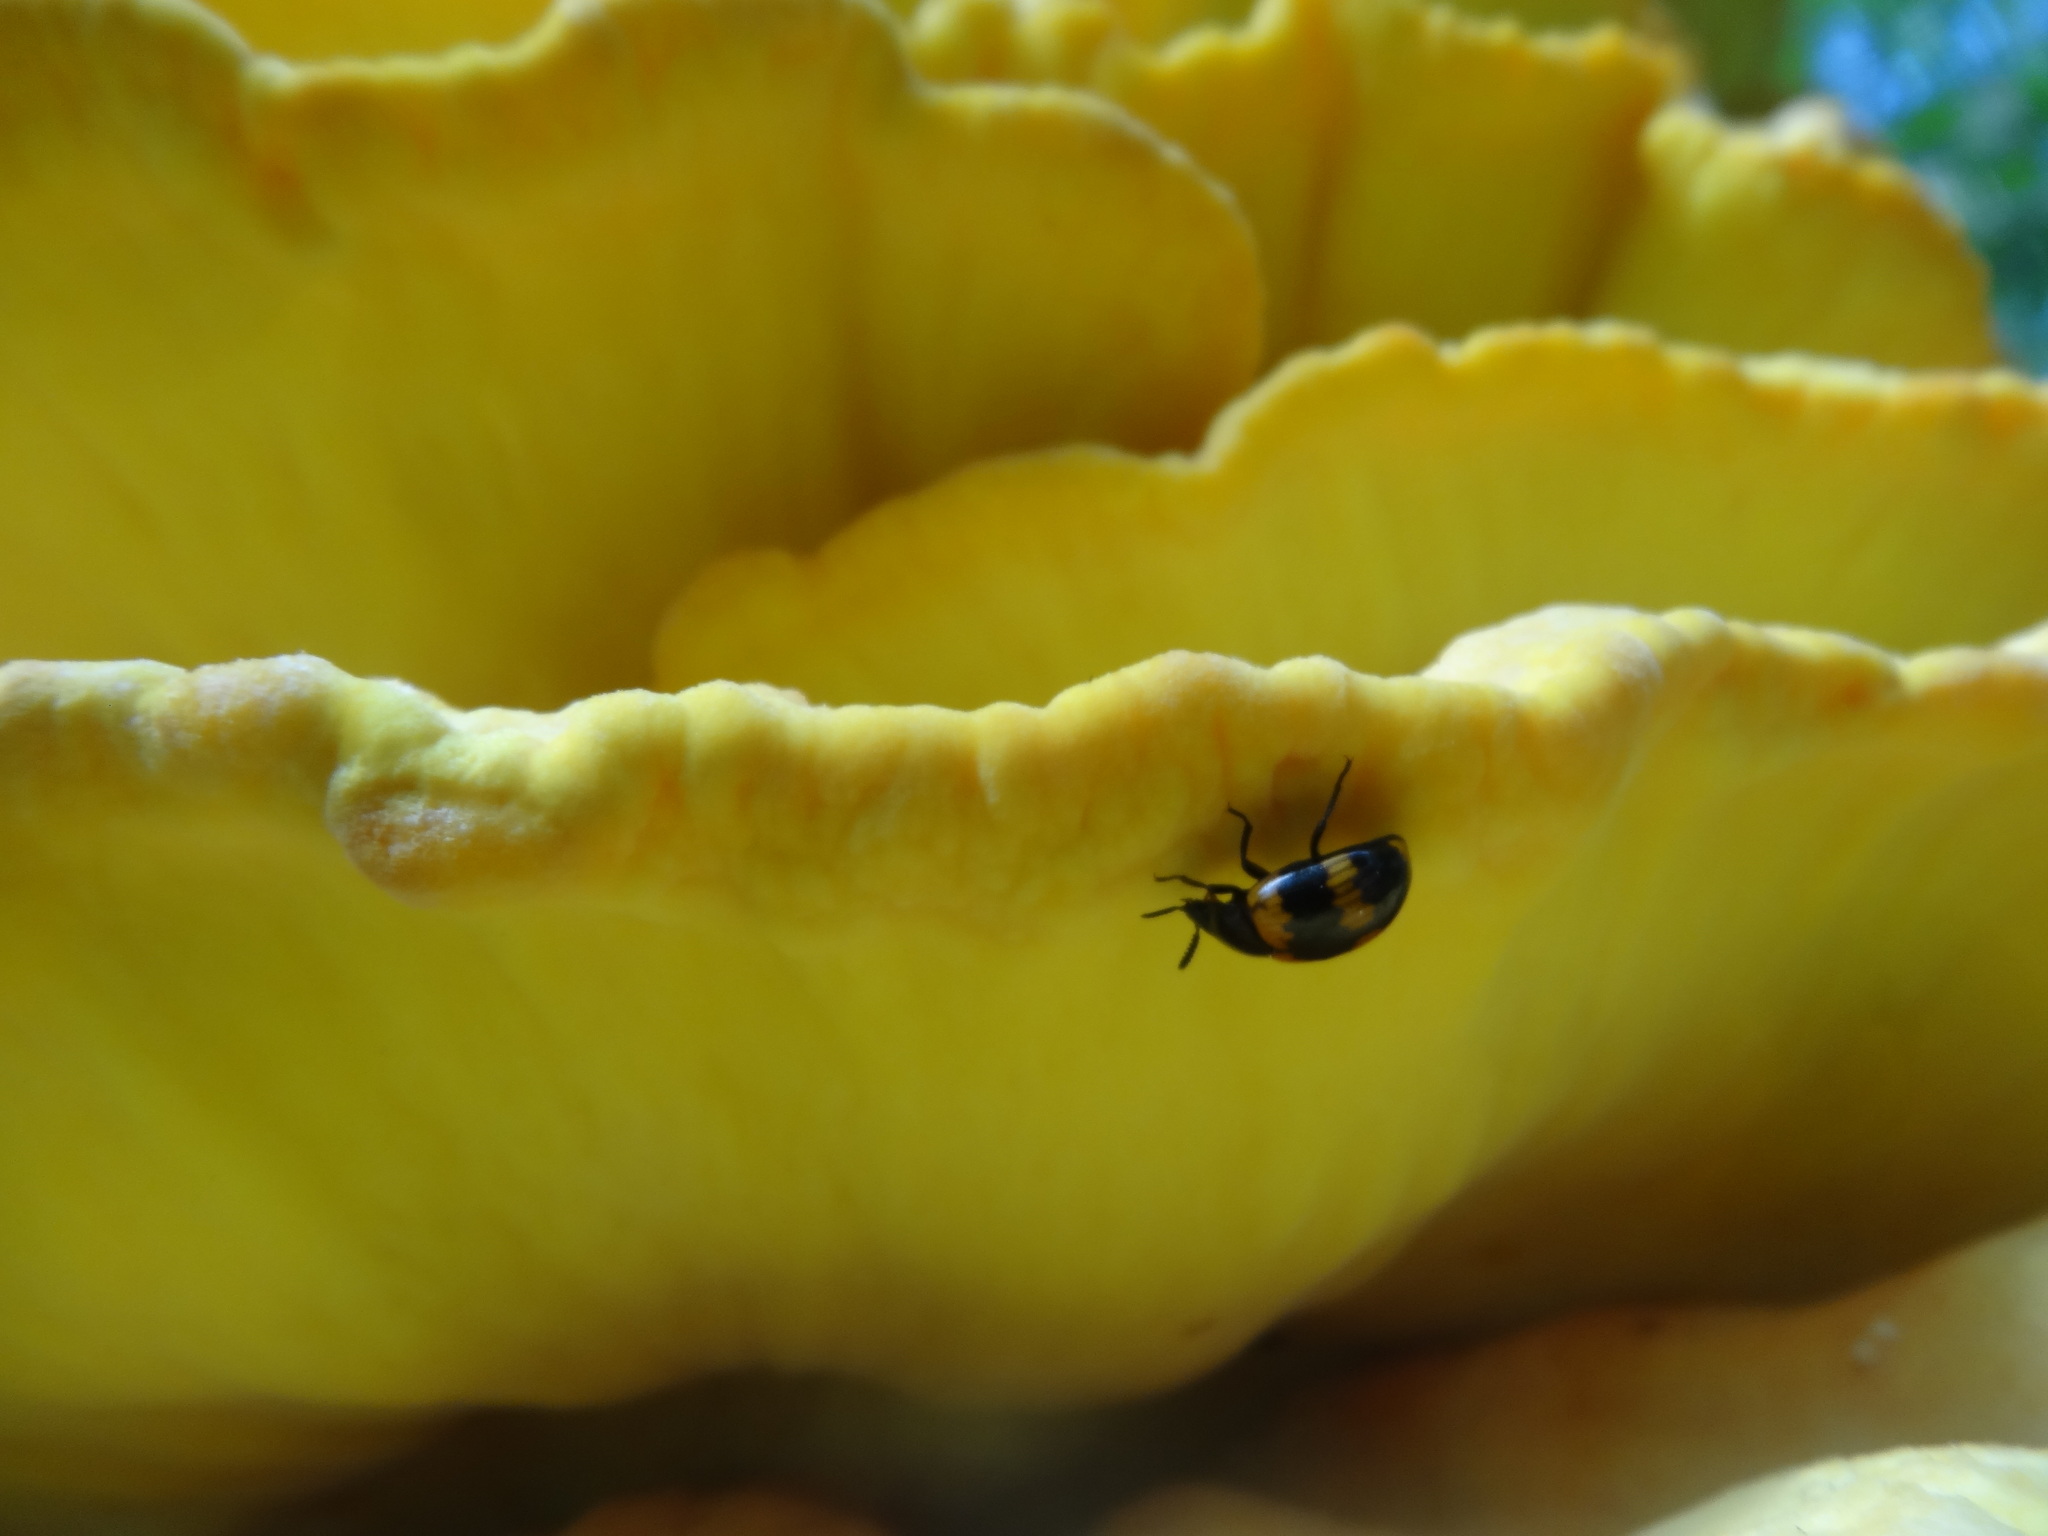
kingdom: Animalia
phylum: Arthropoda
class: Insecta
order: Coleoptera
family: Tenebrionidae
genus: Diaperis
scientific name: Diaperis boleti
